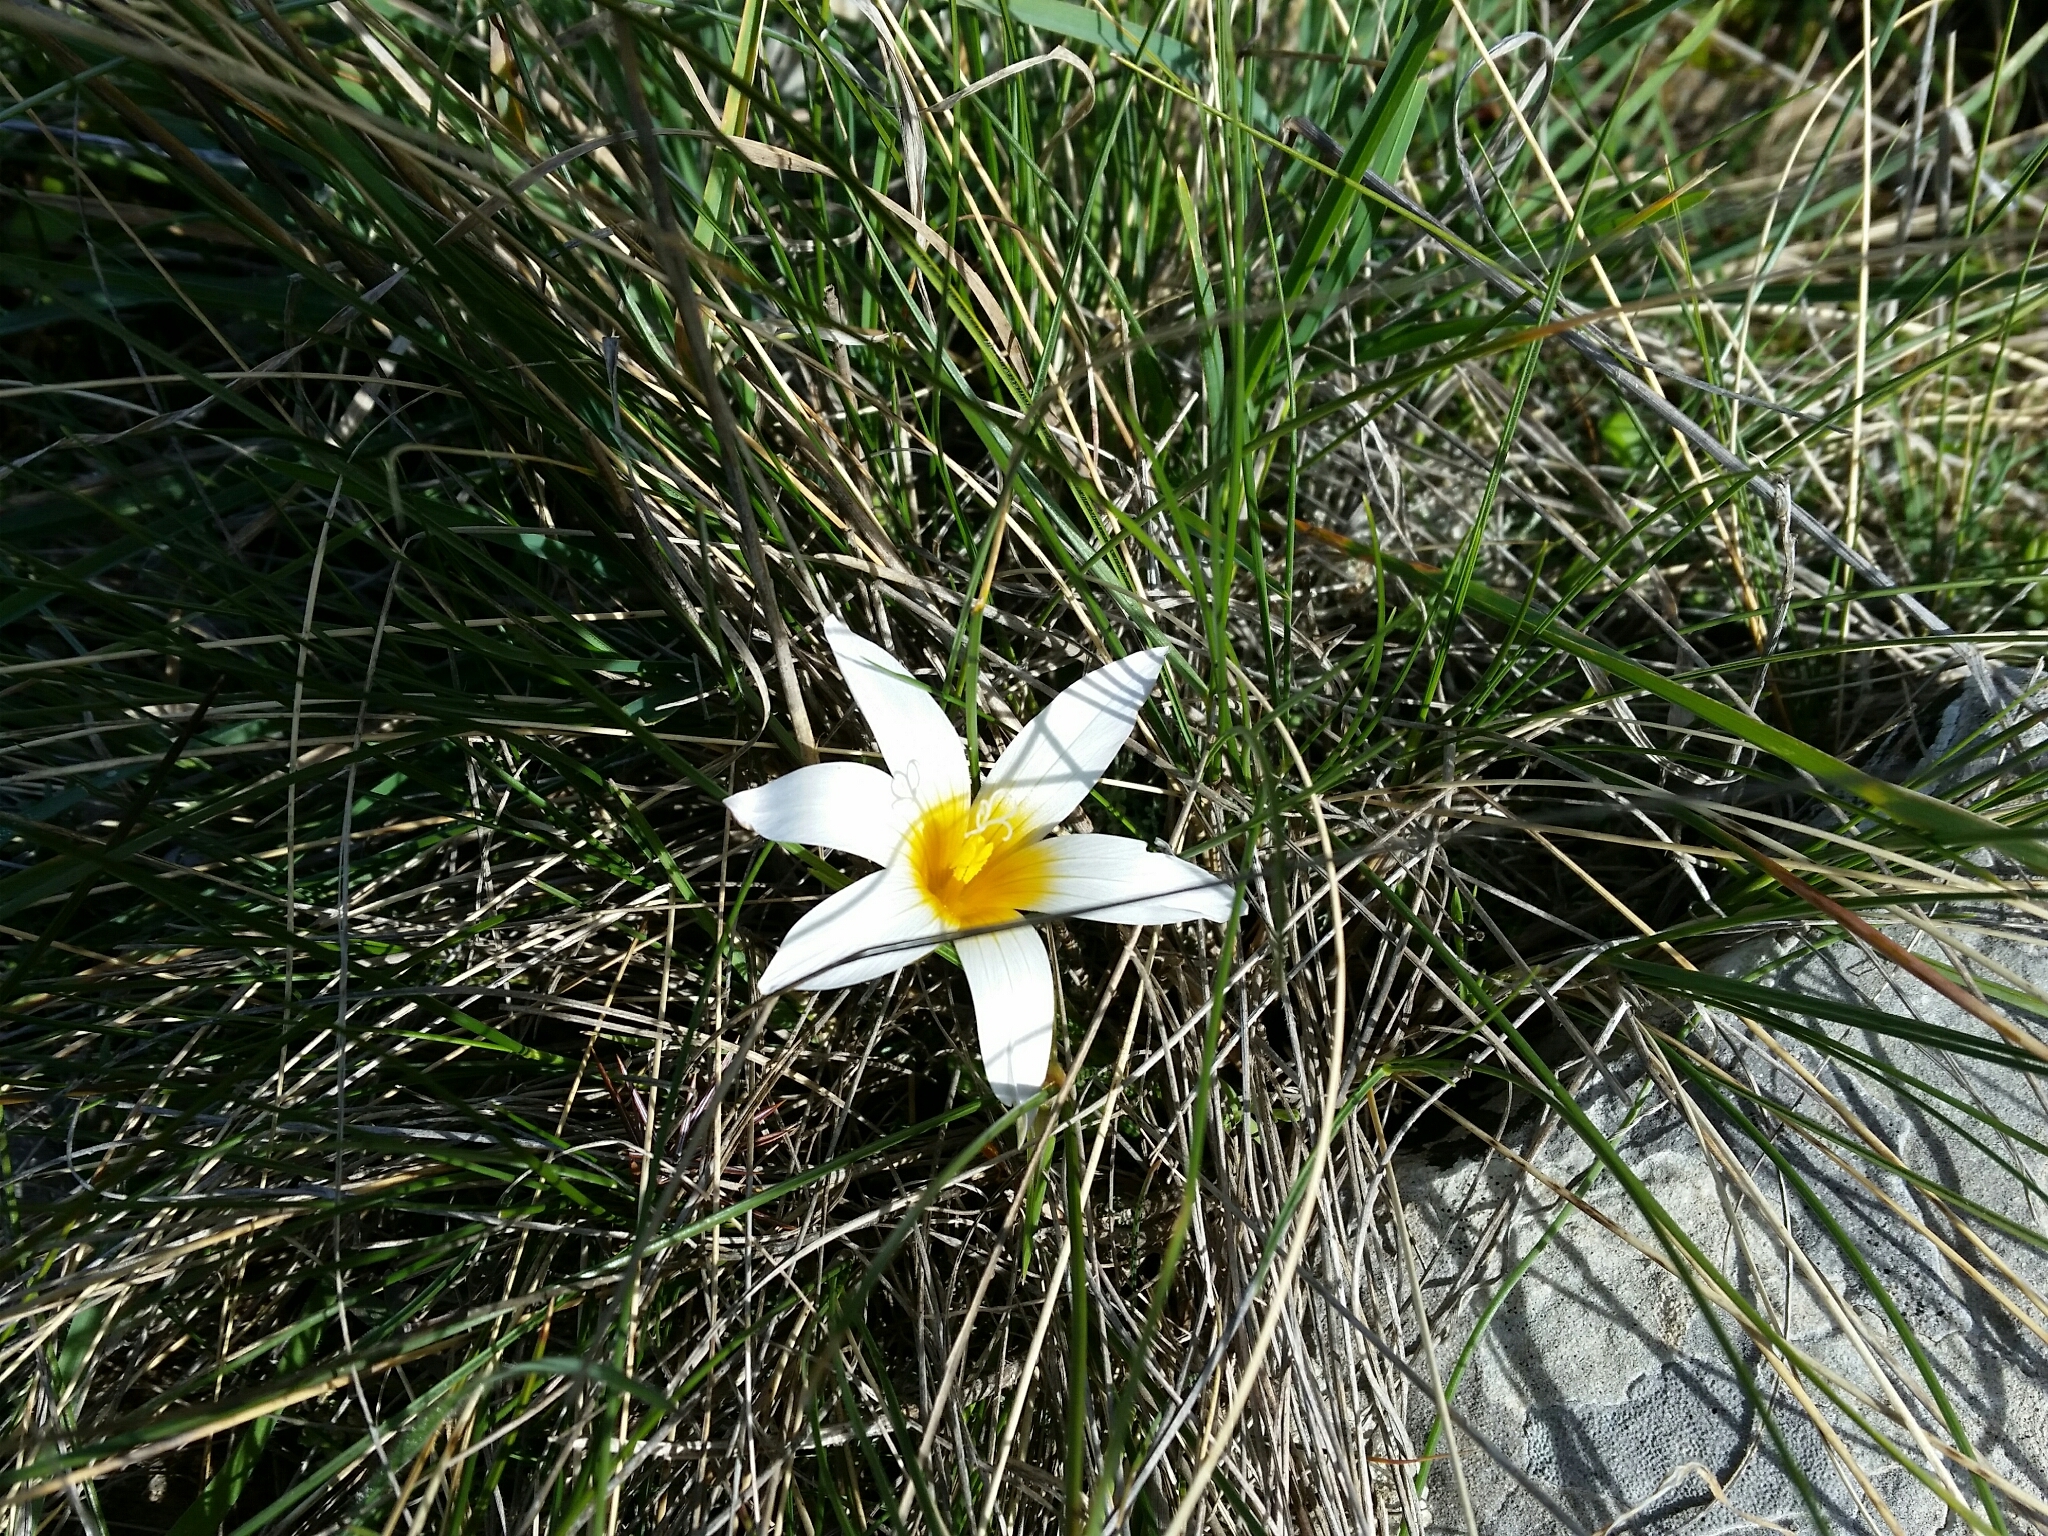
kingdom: Plantae
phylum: Tracheophyta
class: Liliopsida
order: Asparagales
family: Iridaceae
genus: Romulea
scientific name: Romulea bulbocodium
